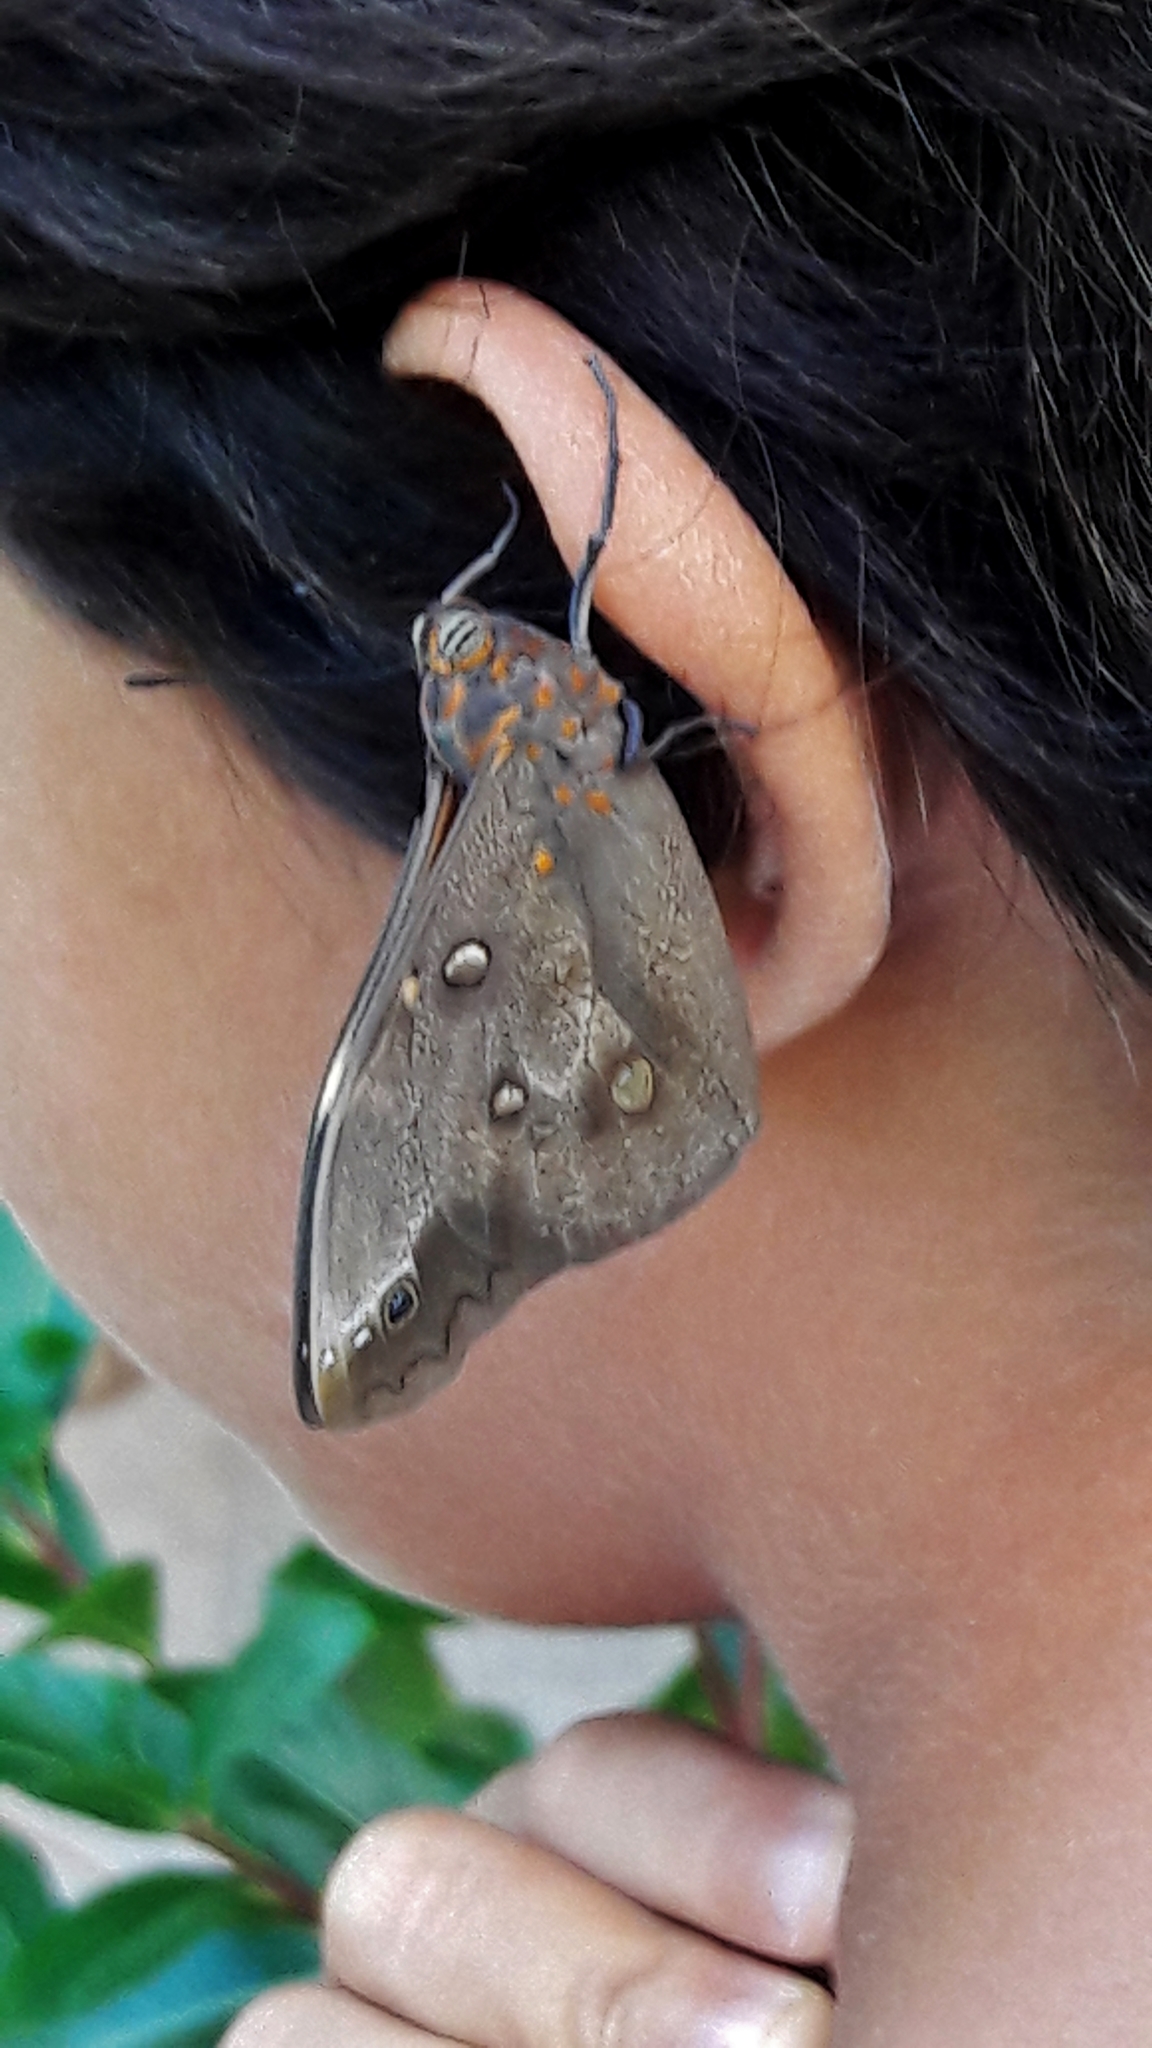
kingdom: Animalia
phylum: Arthropoda
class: Insecta
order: Lepidoptera
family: Nymphalidae
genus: Brassolis
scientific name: Brassolis sophorae
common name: Coconut caterpillar
